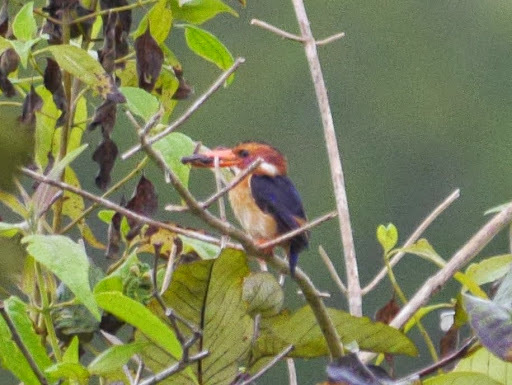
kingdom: Animalia
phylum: Chordata
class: Aves
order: Coraciiformes
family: Alcedinidae
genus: Ispidina
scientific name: Ispidina picta
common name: African pygmy-kingfisher
